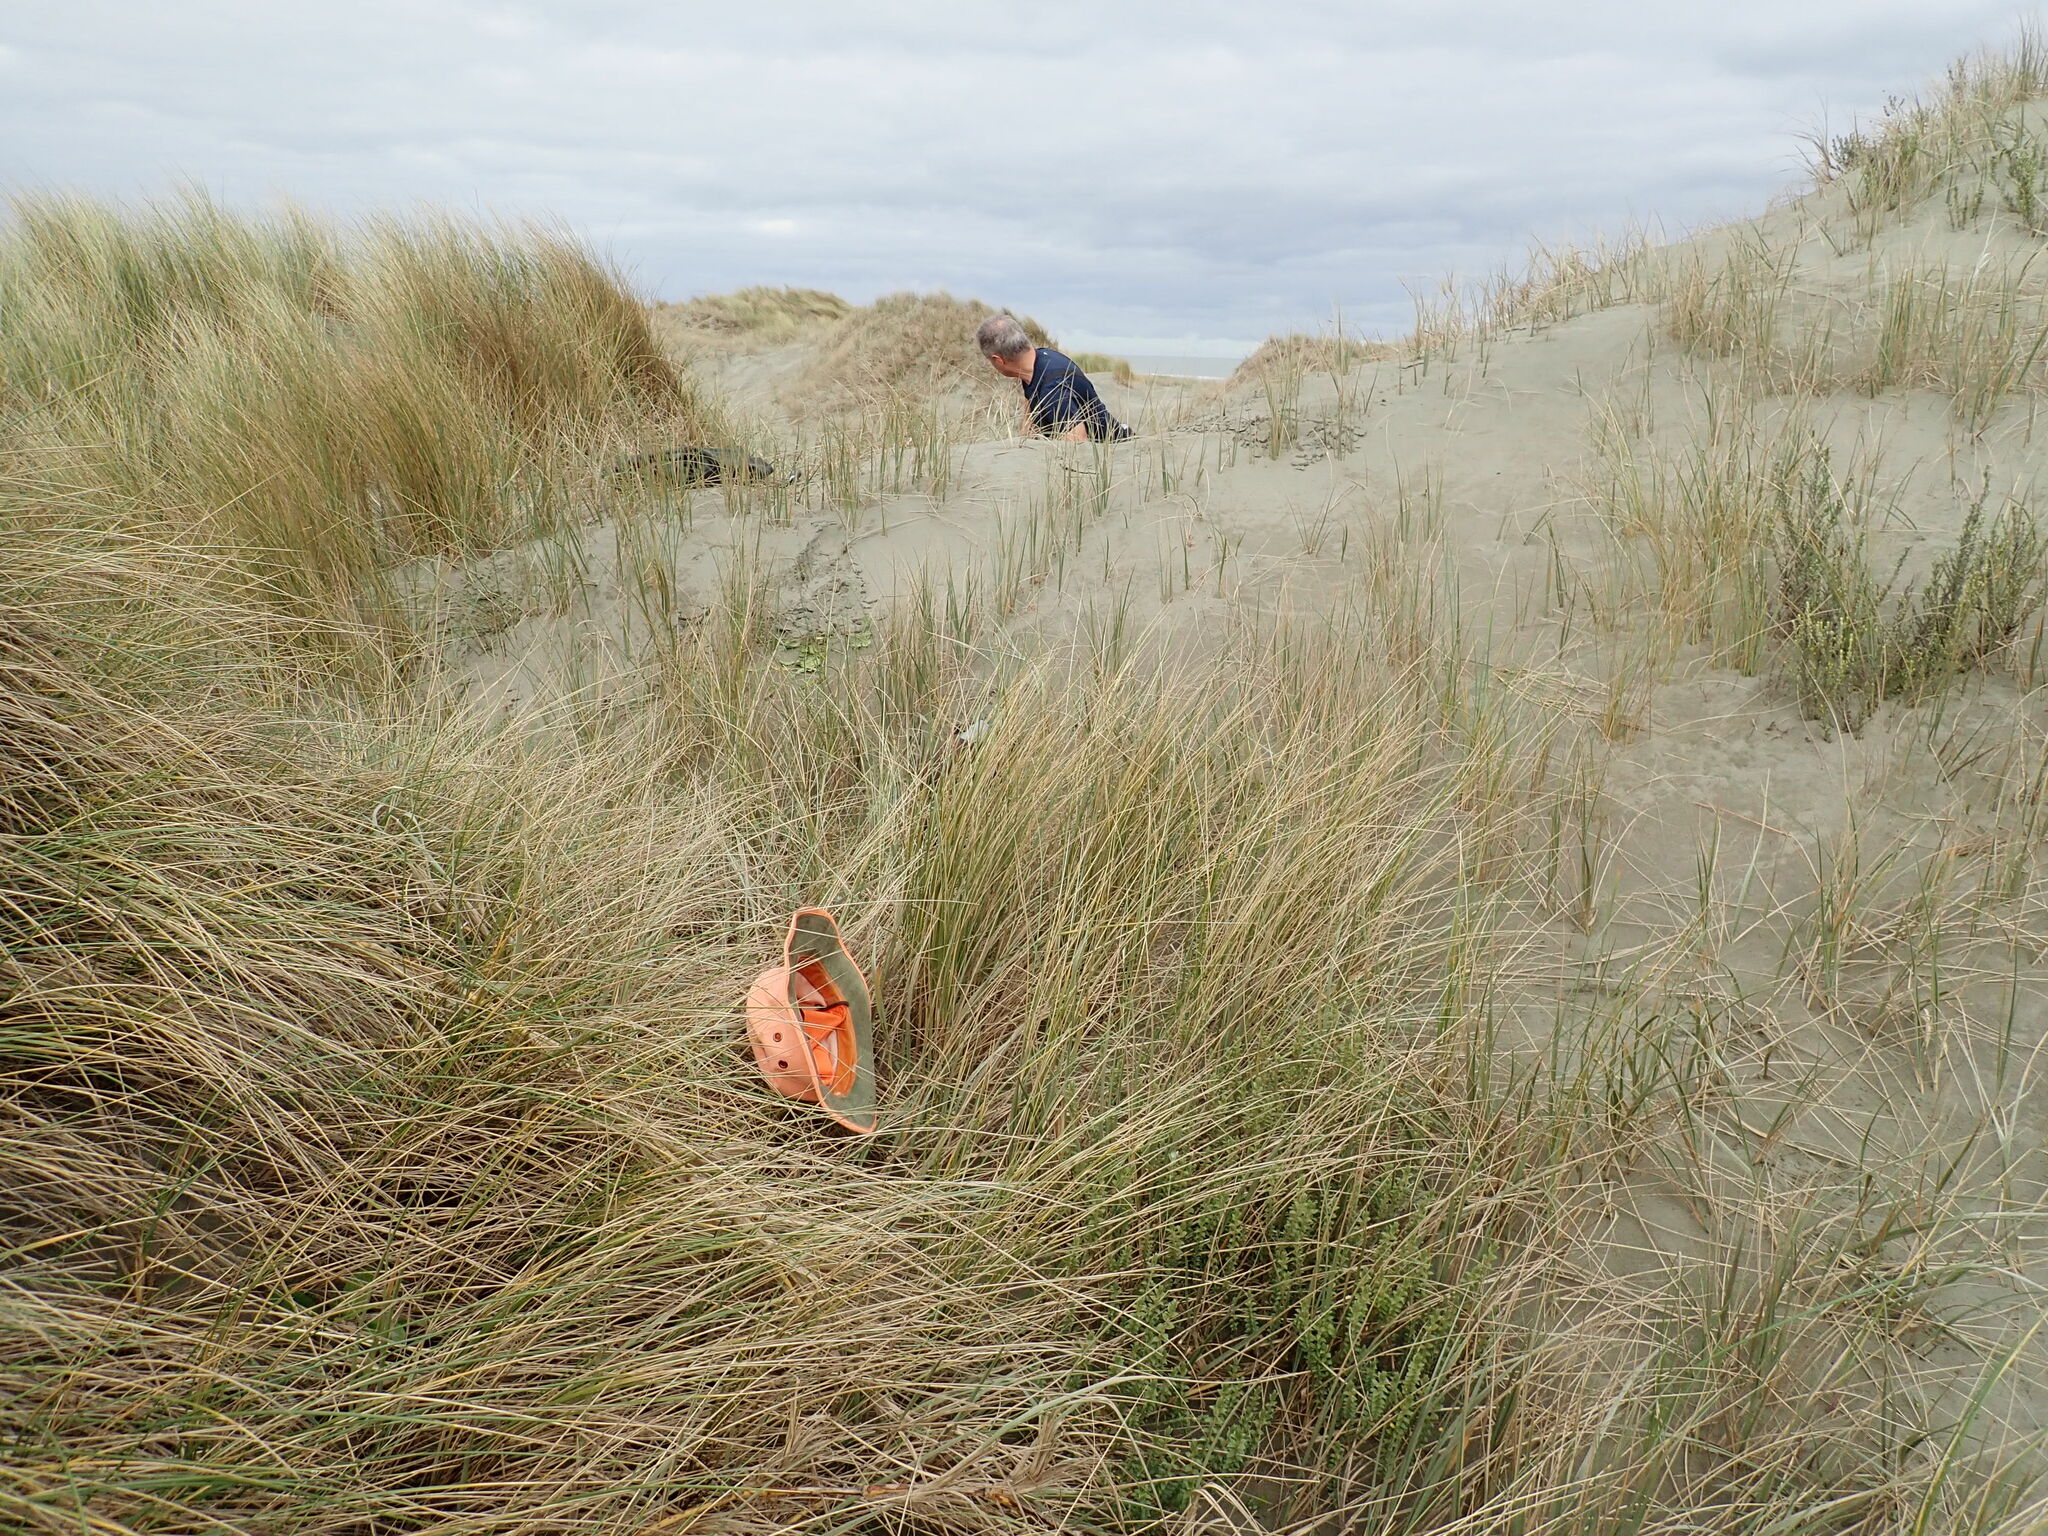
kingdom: Plantae
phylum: Tracheophyta
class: Magnoliopsida
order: Malvales
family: Thymelaeaceae
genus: Pimelea
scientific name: Pimelea villosa
